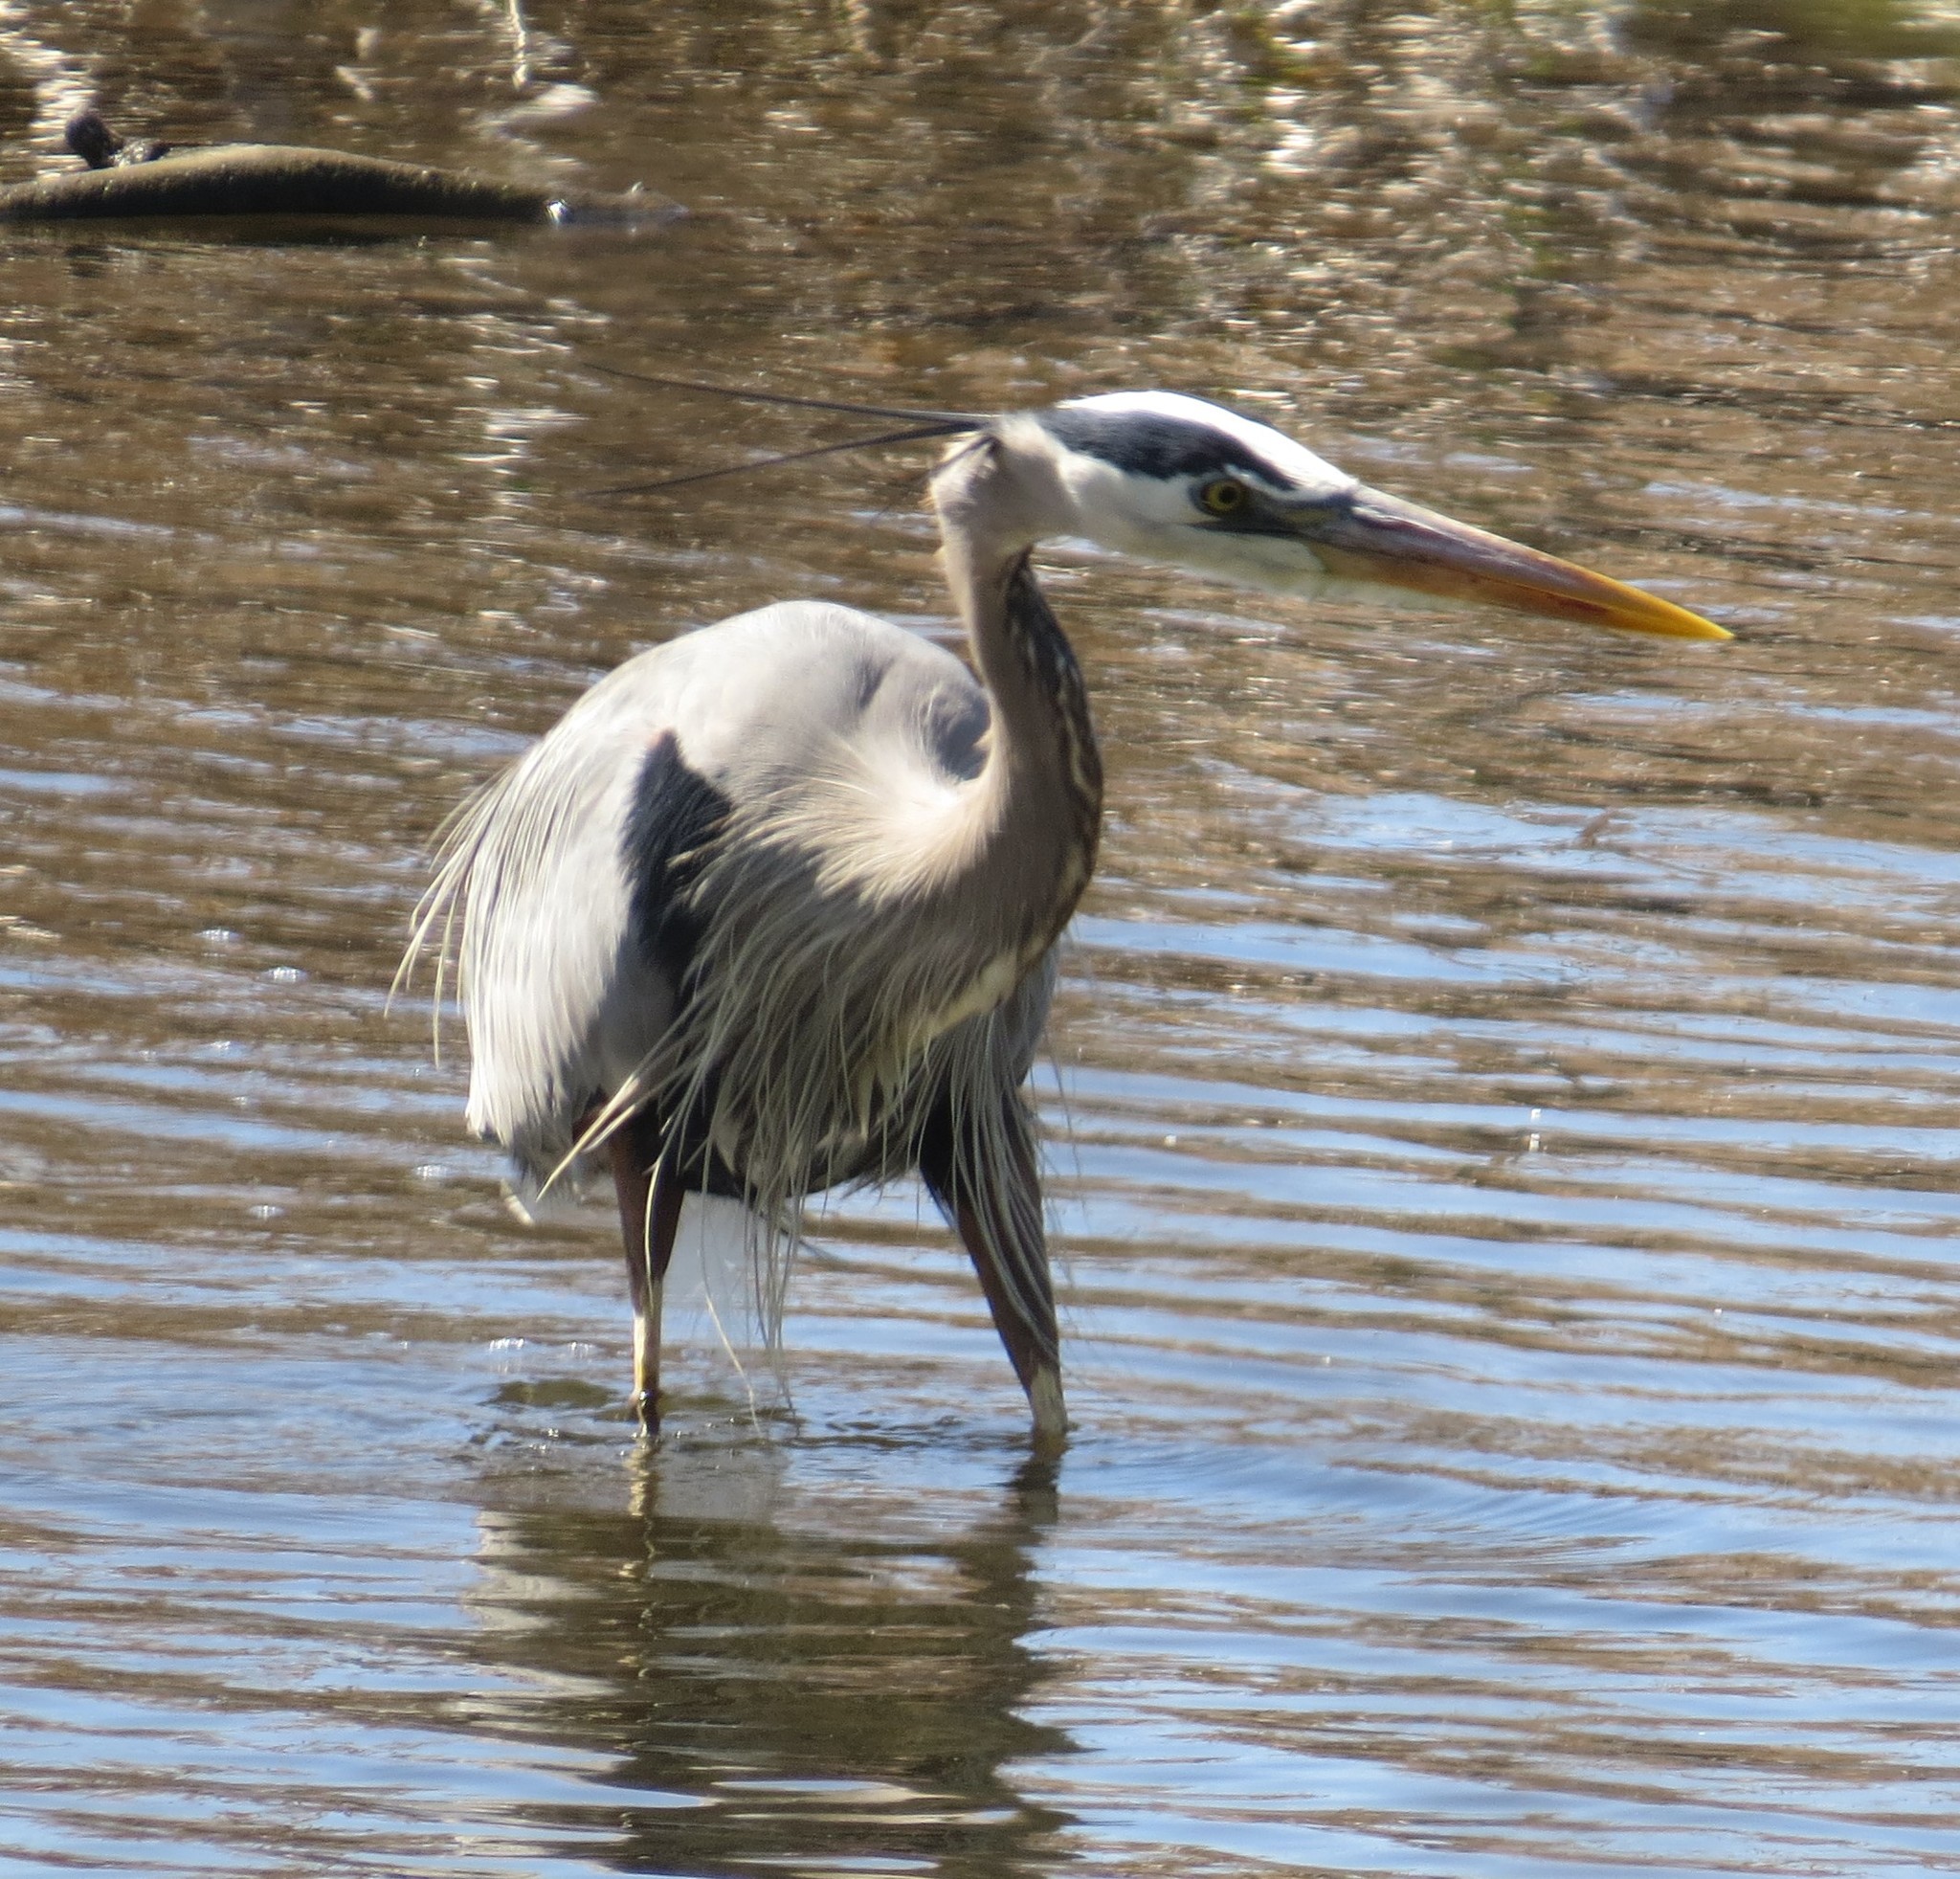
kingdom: Animalia
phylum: Chordata
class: Aves
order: Pelecaniformes
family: Ardeidae
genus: Ardea
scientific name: Ardea herodias
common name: Great blue heron
